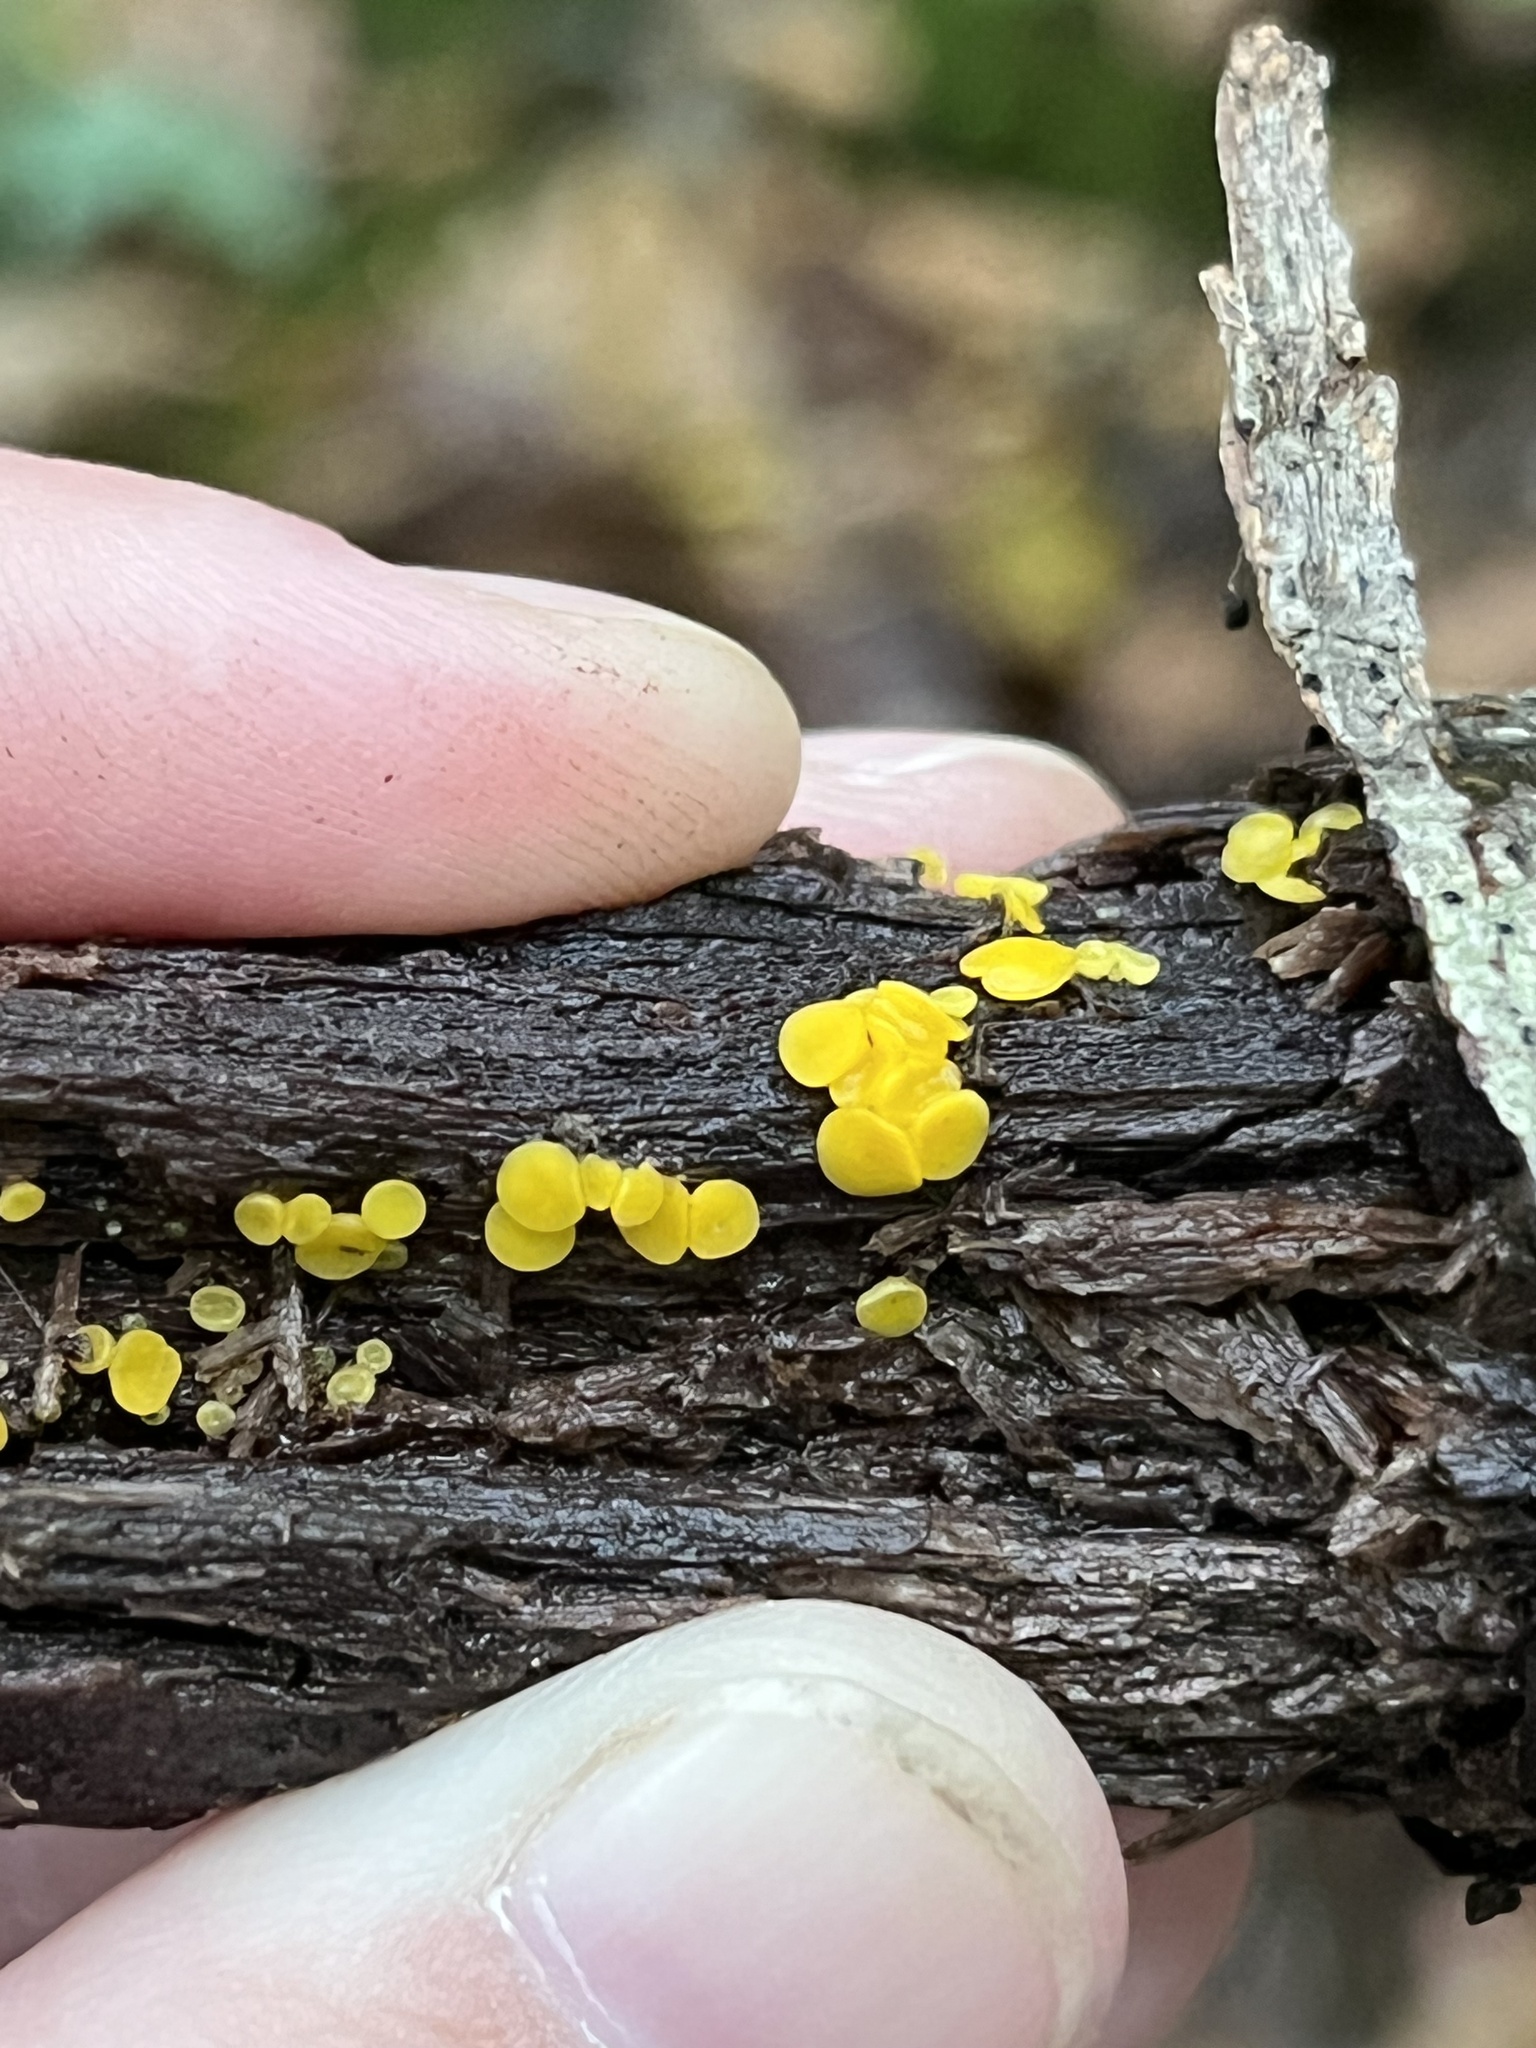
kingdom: Fungi
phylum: Ascomycota
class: Leotiomycetes
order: Helotiales
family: Pezizellaceae
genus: Calycina
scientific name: Calycina citrina
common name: Yellow fairy cups
